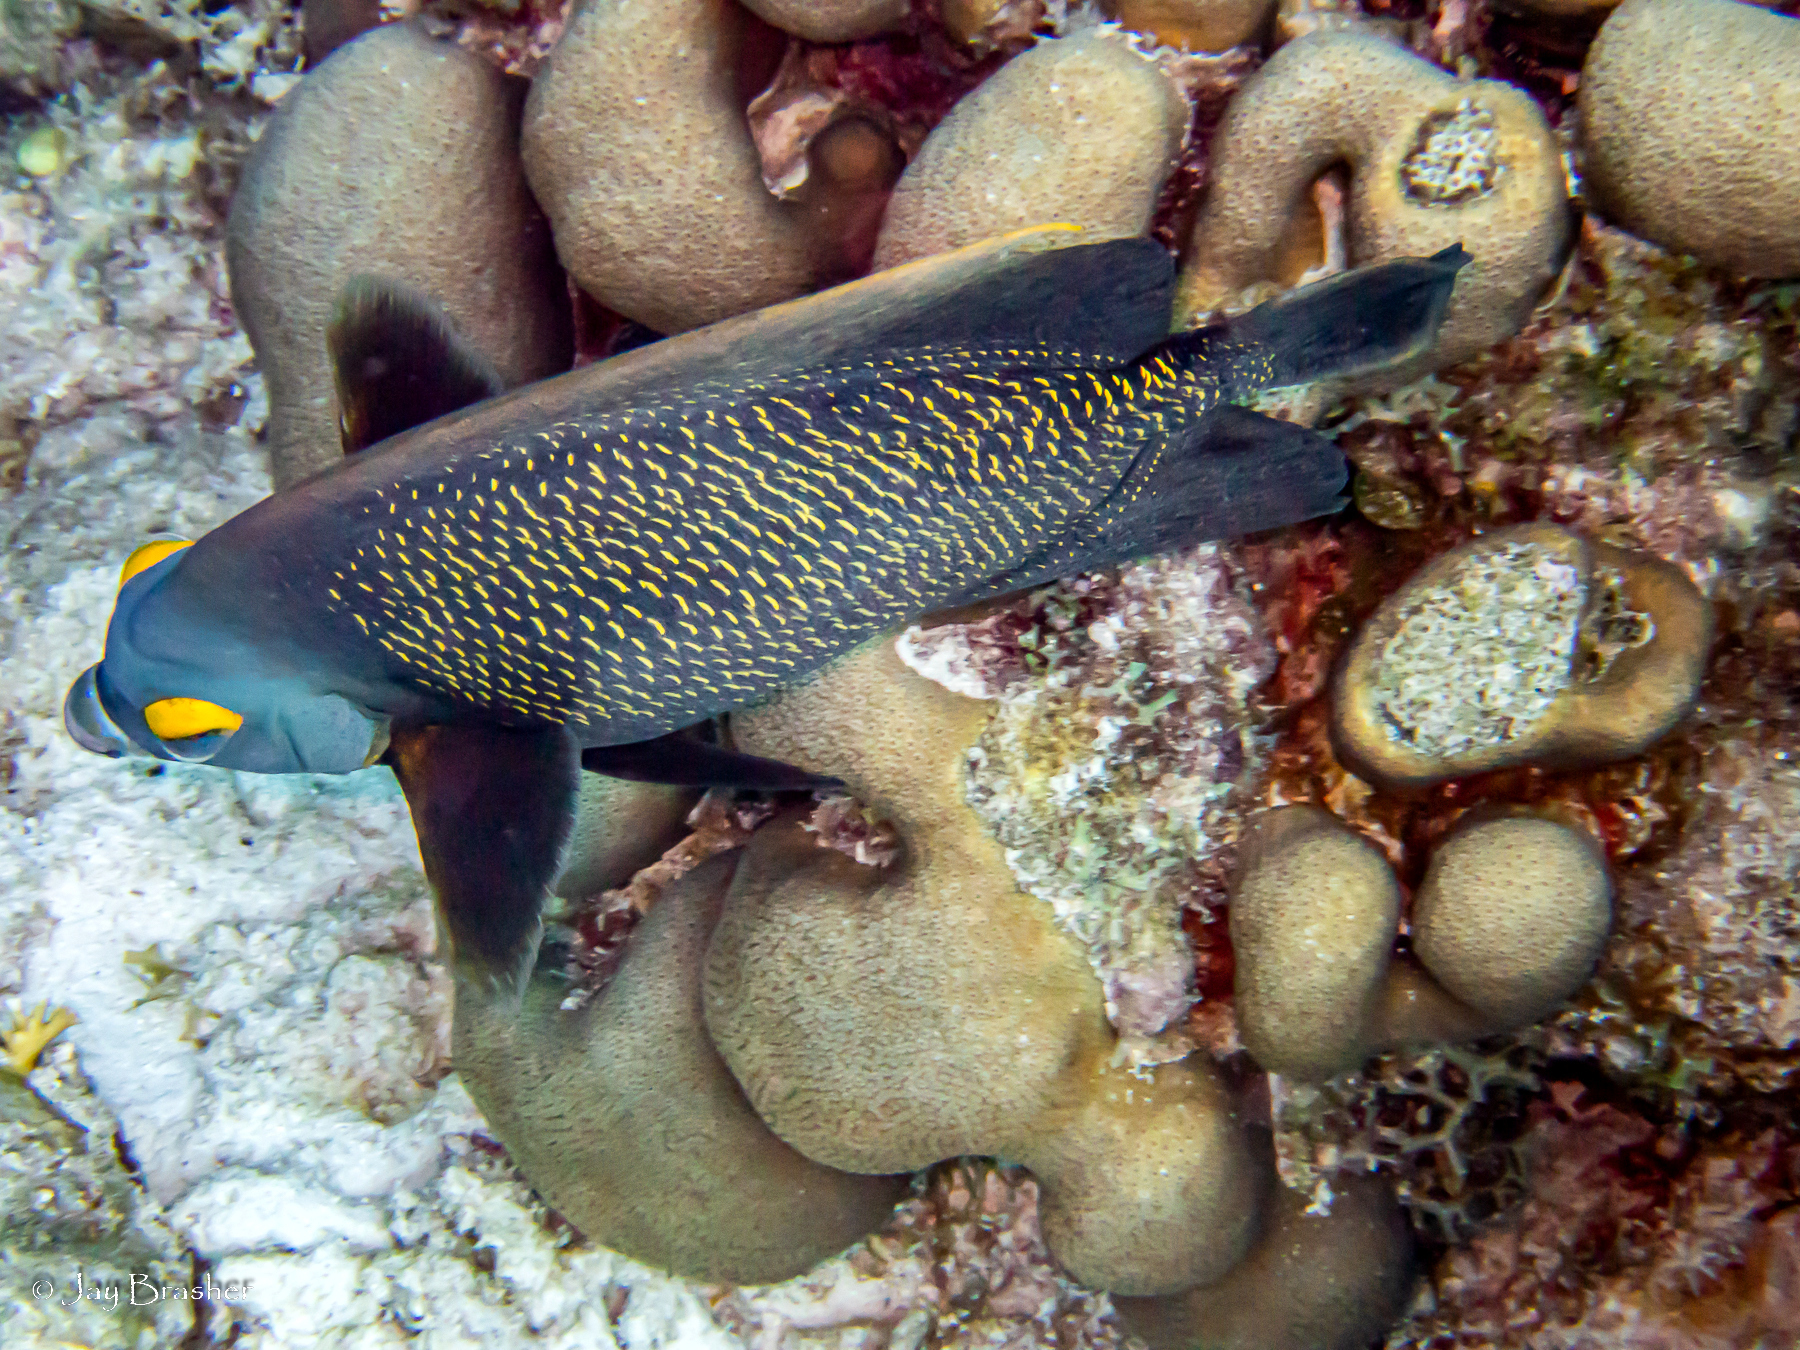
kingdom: Animalia
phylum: Cnidaria
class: Anthozoa
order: Scleractinia
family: Merulinidae
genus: Orbicella
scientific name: Orbicella annularis
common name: Boulder star coral
